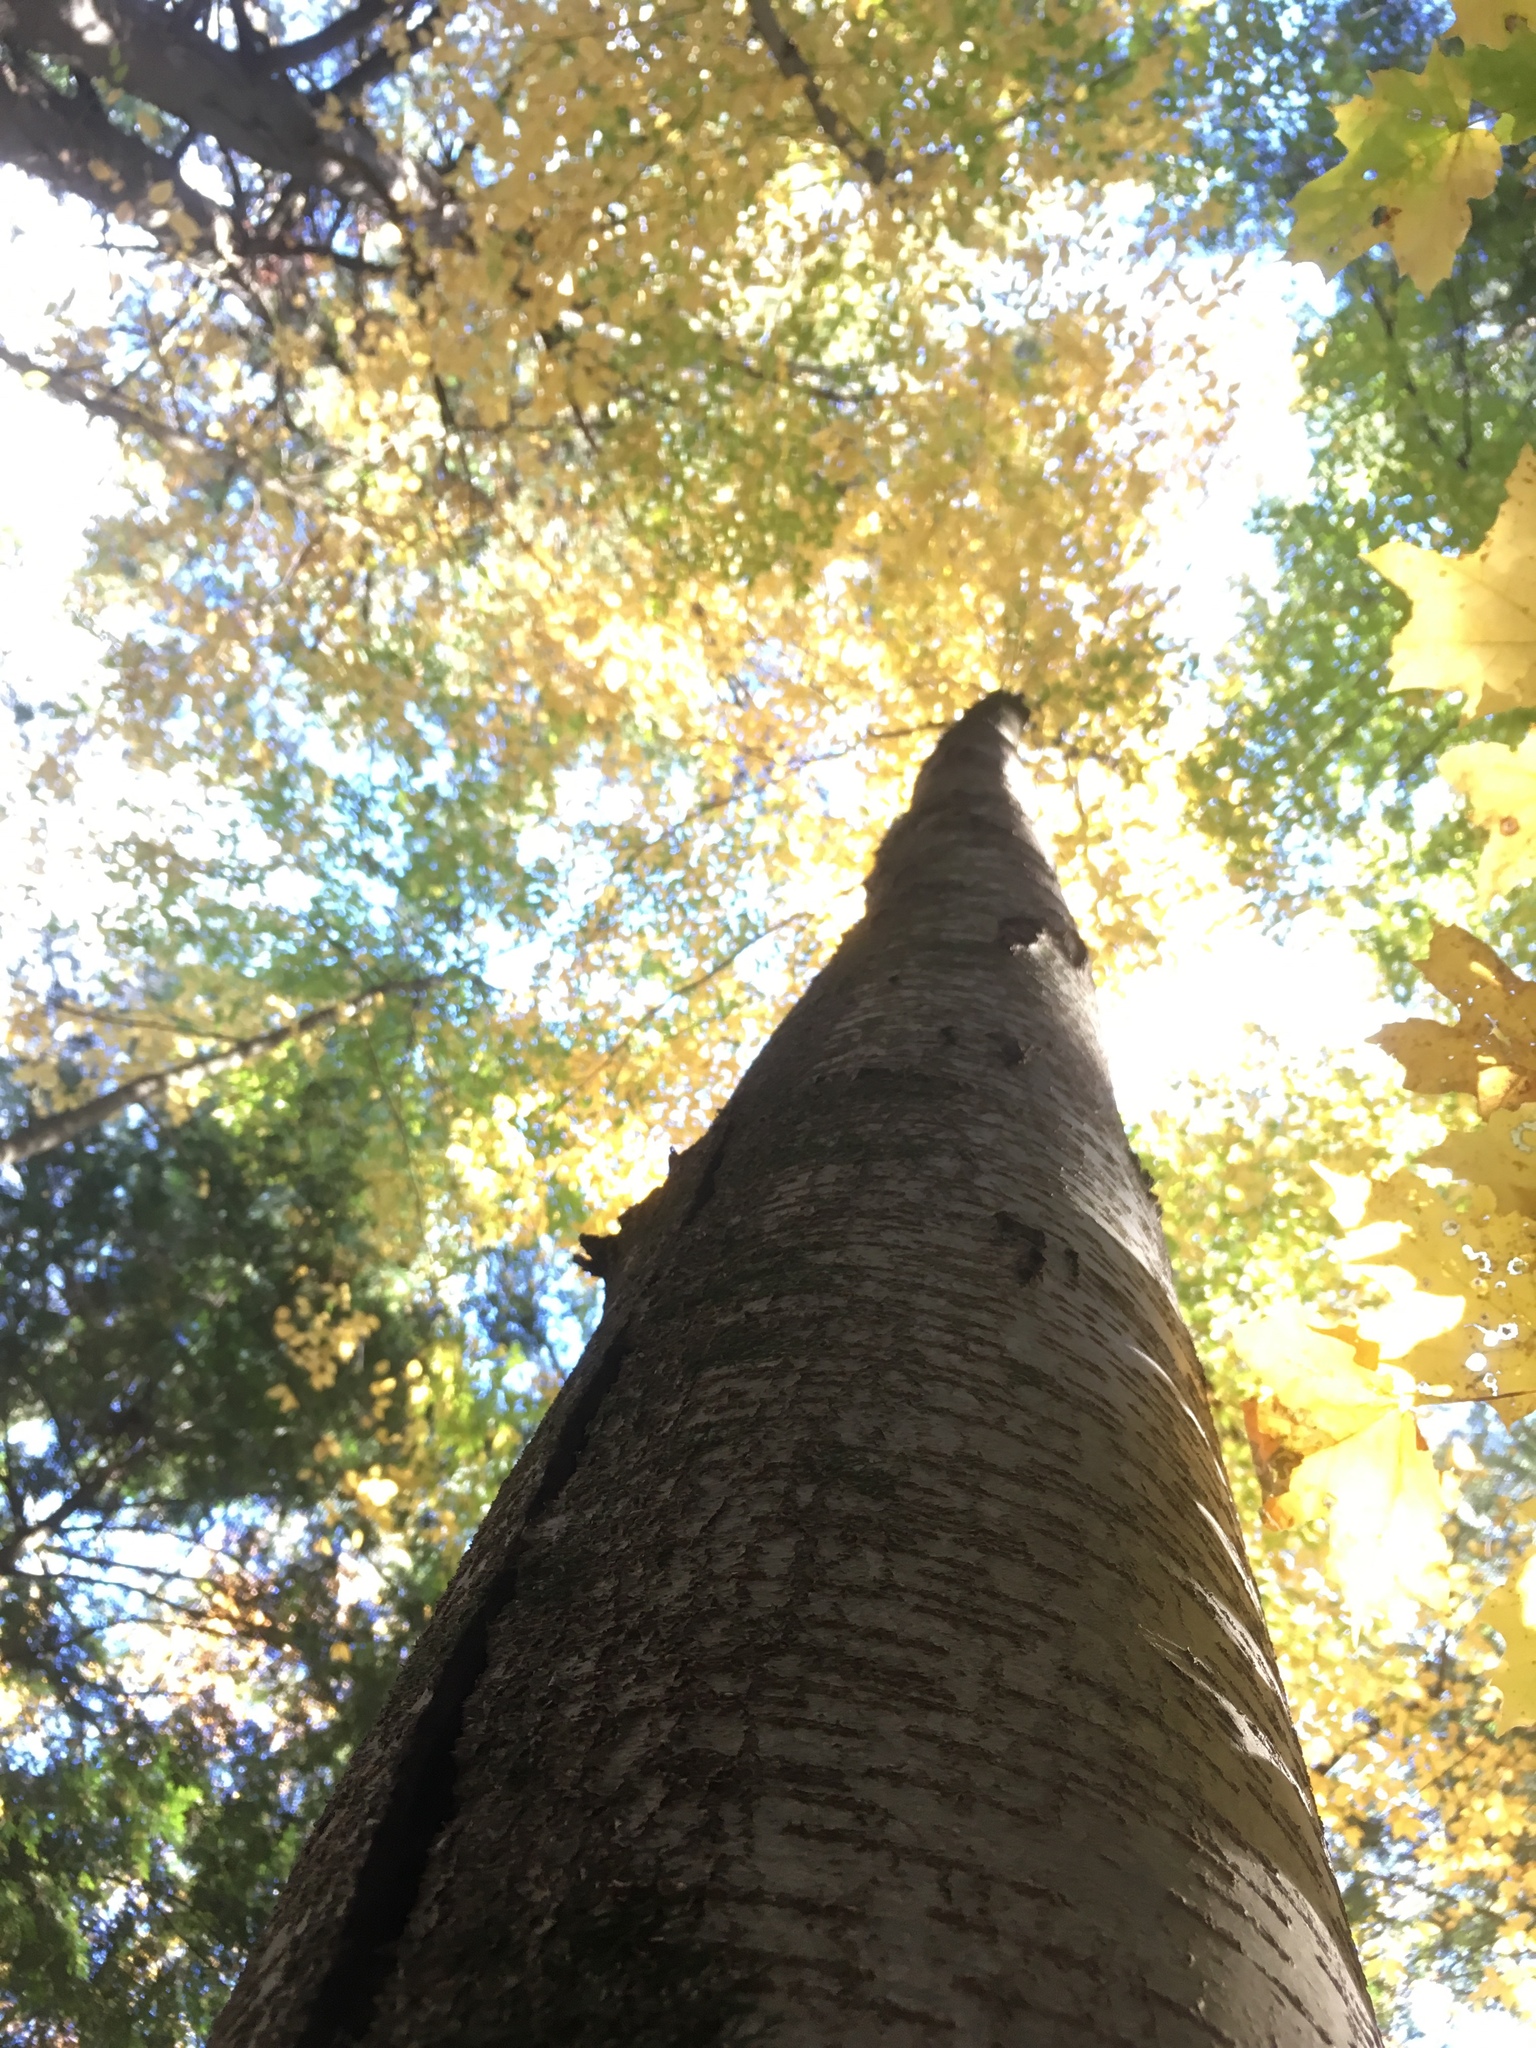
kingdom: Plantae
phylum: Tracheophyta
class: Magnoliopsida
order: Fagales
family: Betulaceae
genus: Betula
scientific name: Betula lenta
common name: Black birch
